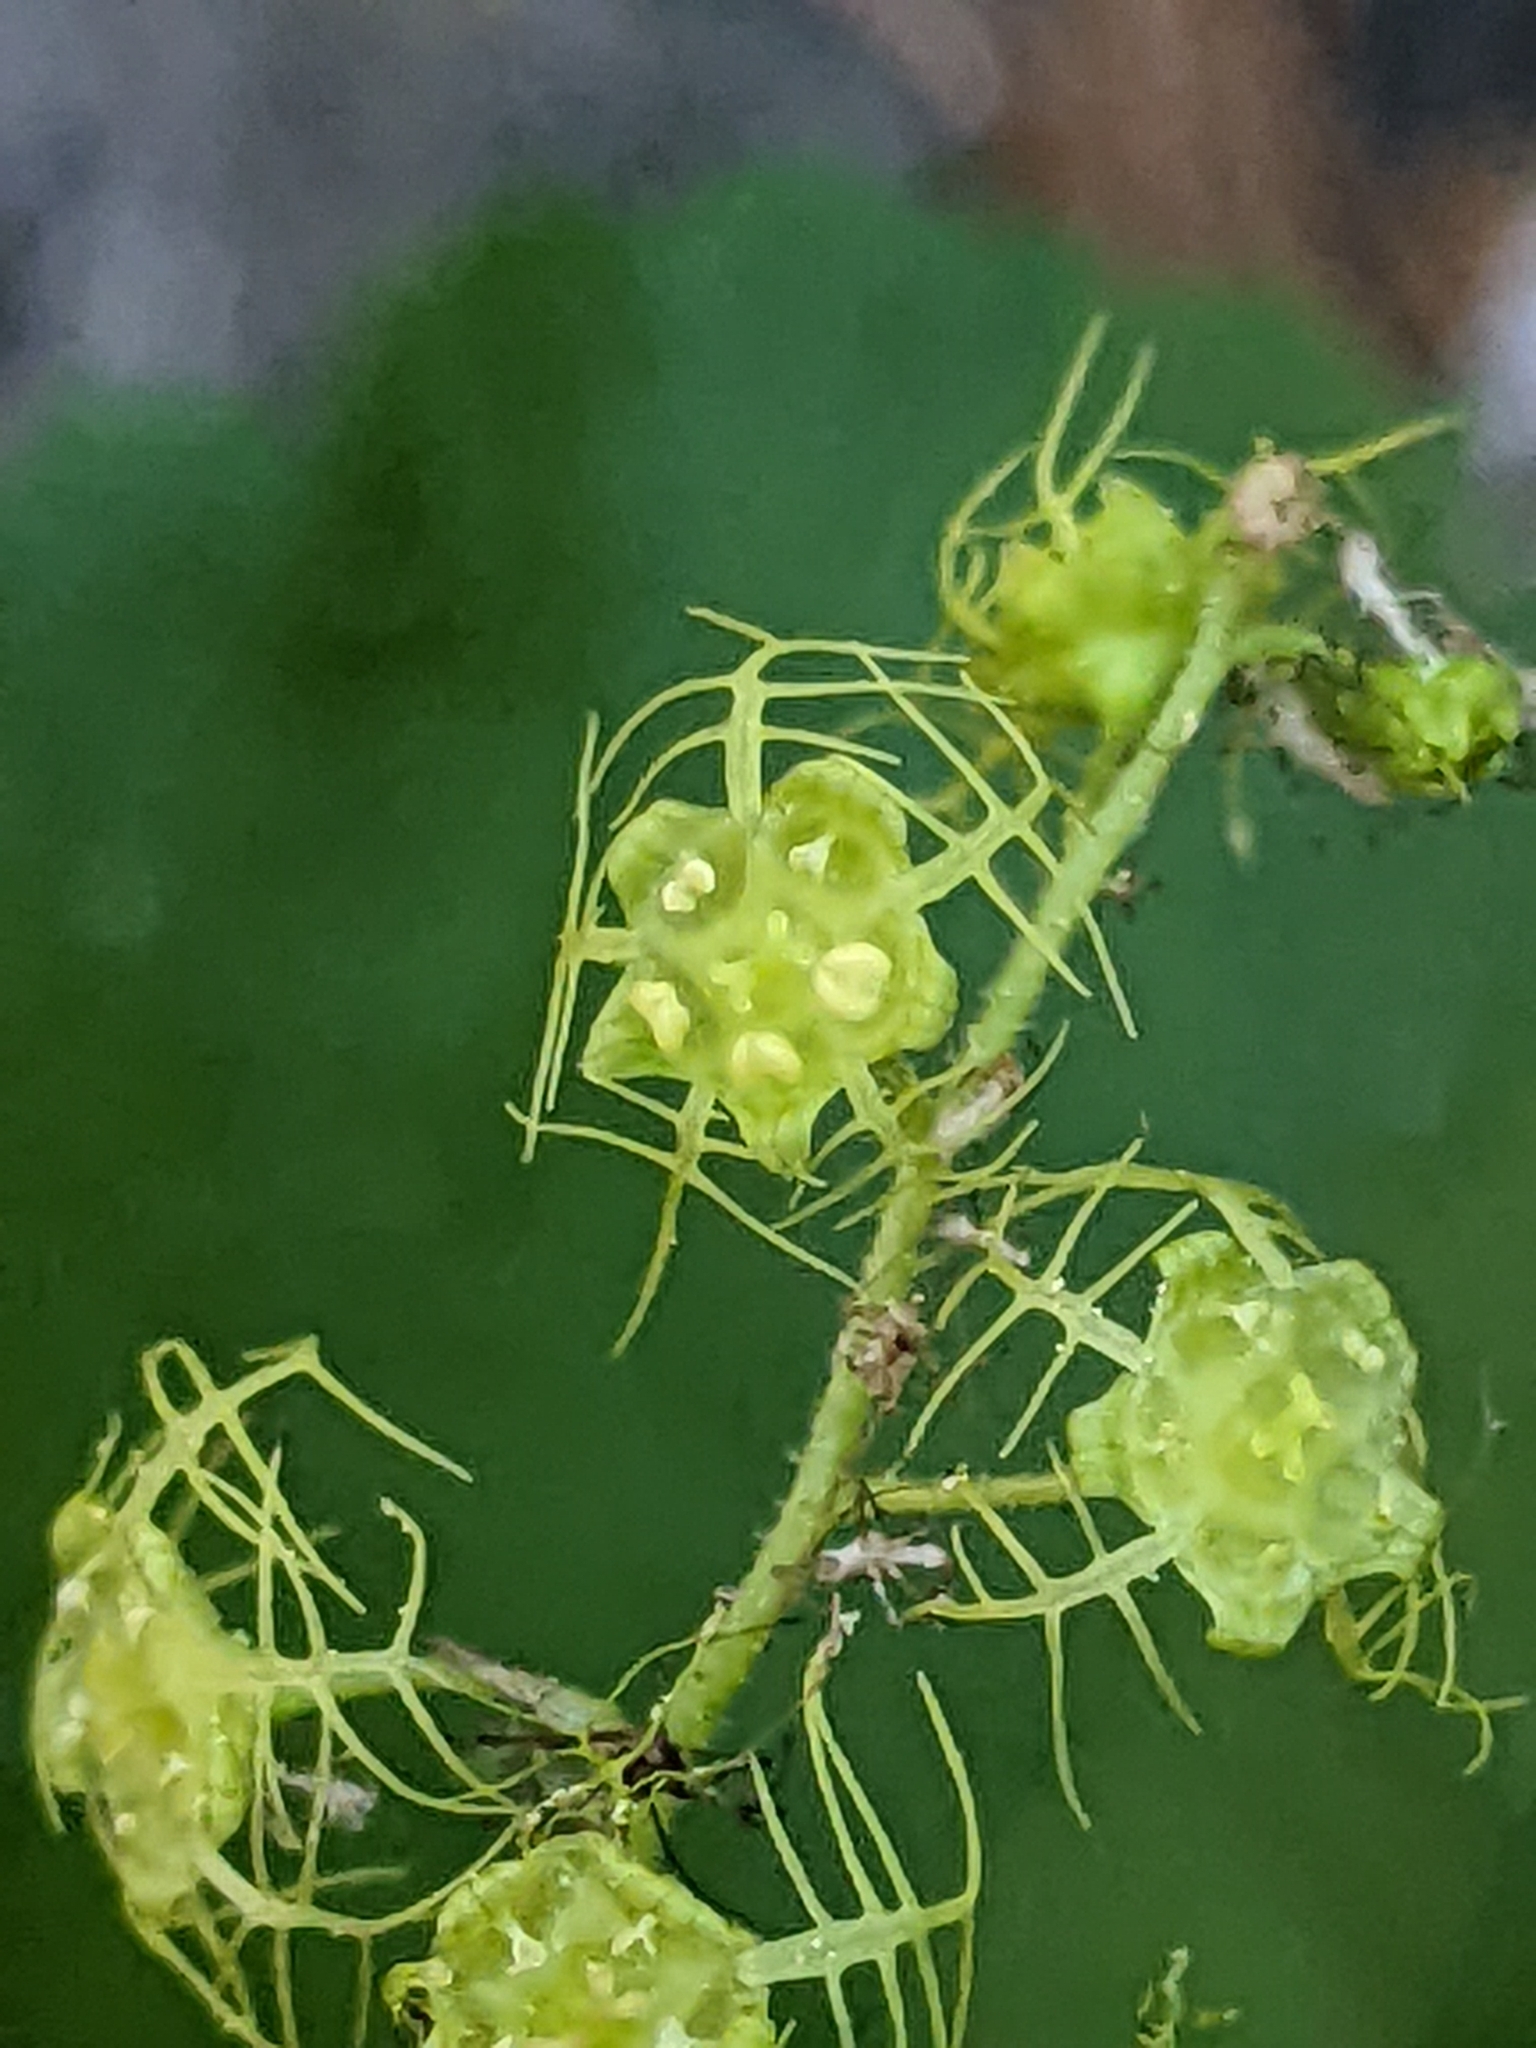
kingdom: Plantae
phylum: Tracheophyta
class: Magnoliopsida
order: Saxifragales
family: Saxifragaceae
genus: Brewerimitella
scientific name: Brewerimitella breweri
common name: Brewer's bishop's-cap
